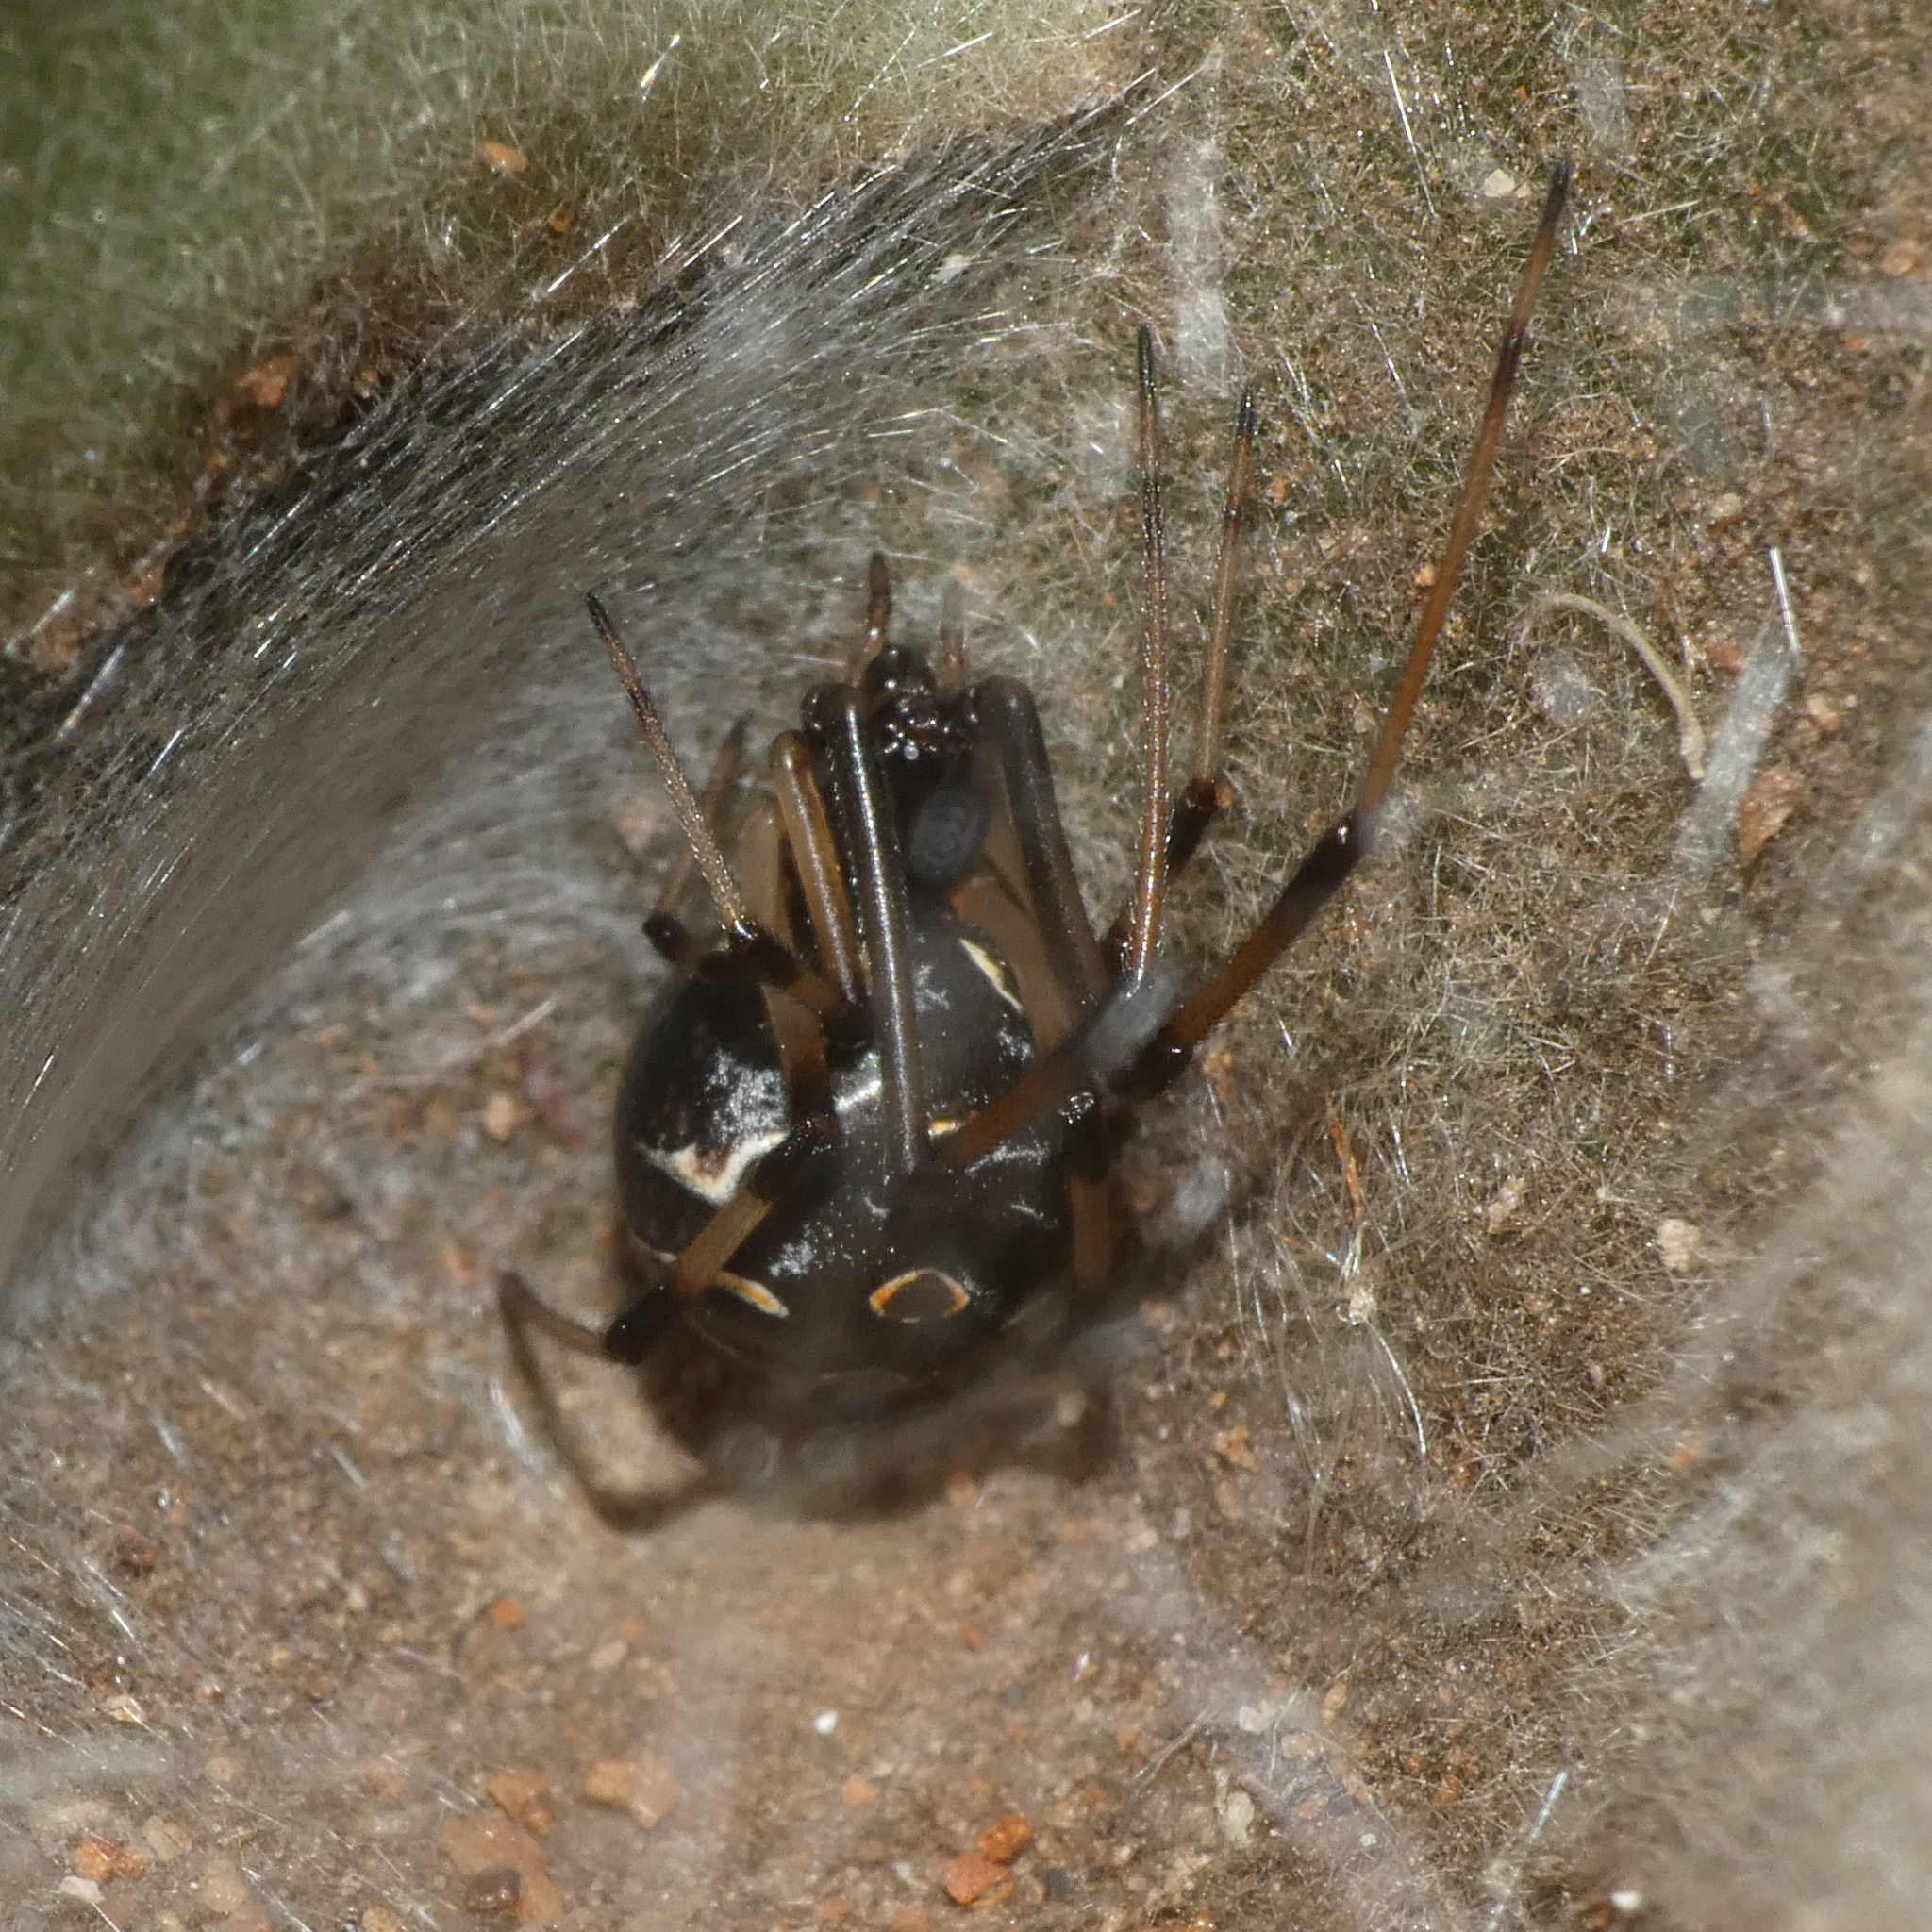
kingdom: Animalia
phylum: Arthropoda
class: Arachnida
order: Araneae
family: Theridiidae
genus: Latrodectus
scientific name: Latrodectus geometricus
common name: Brown widow spider
